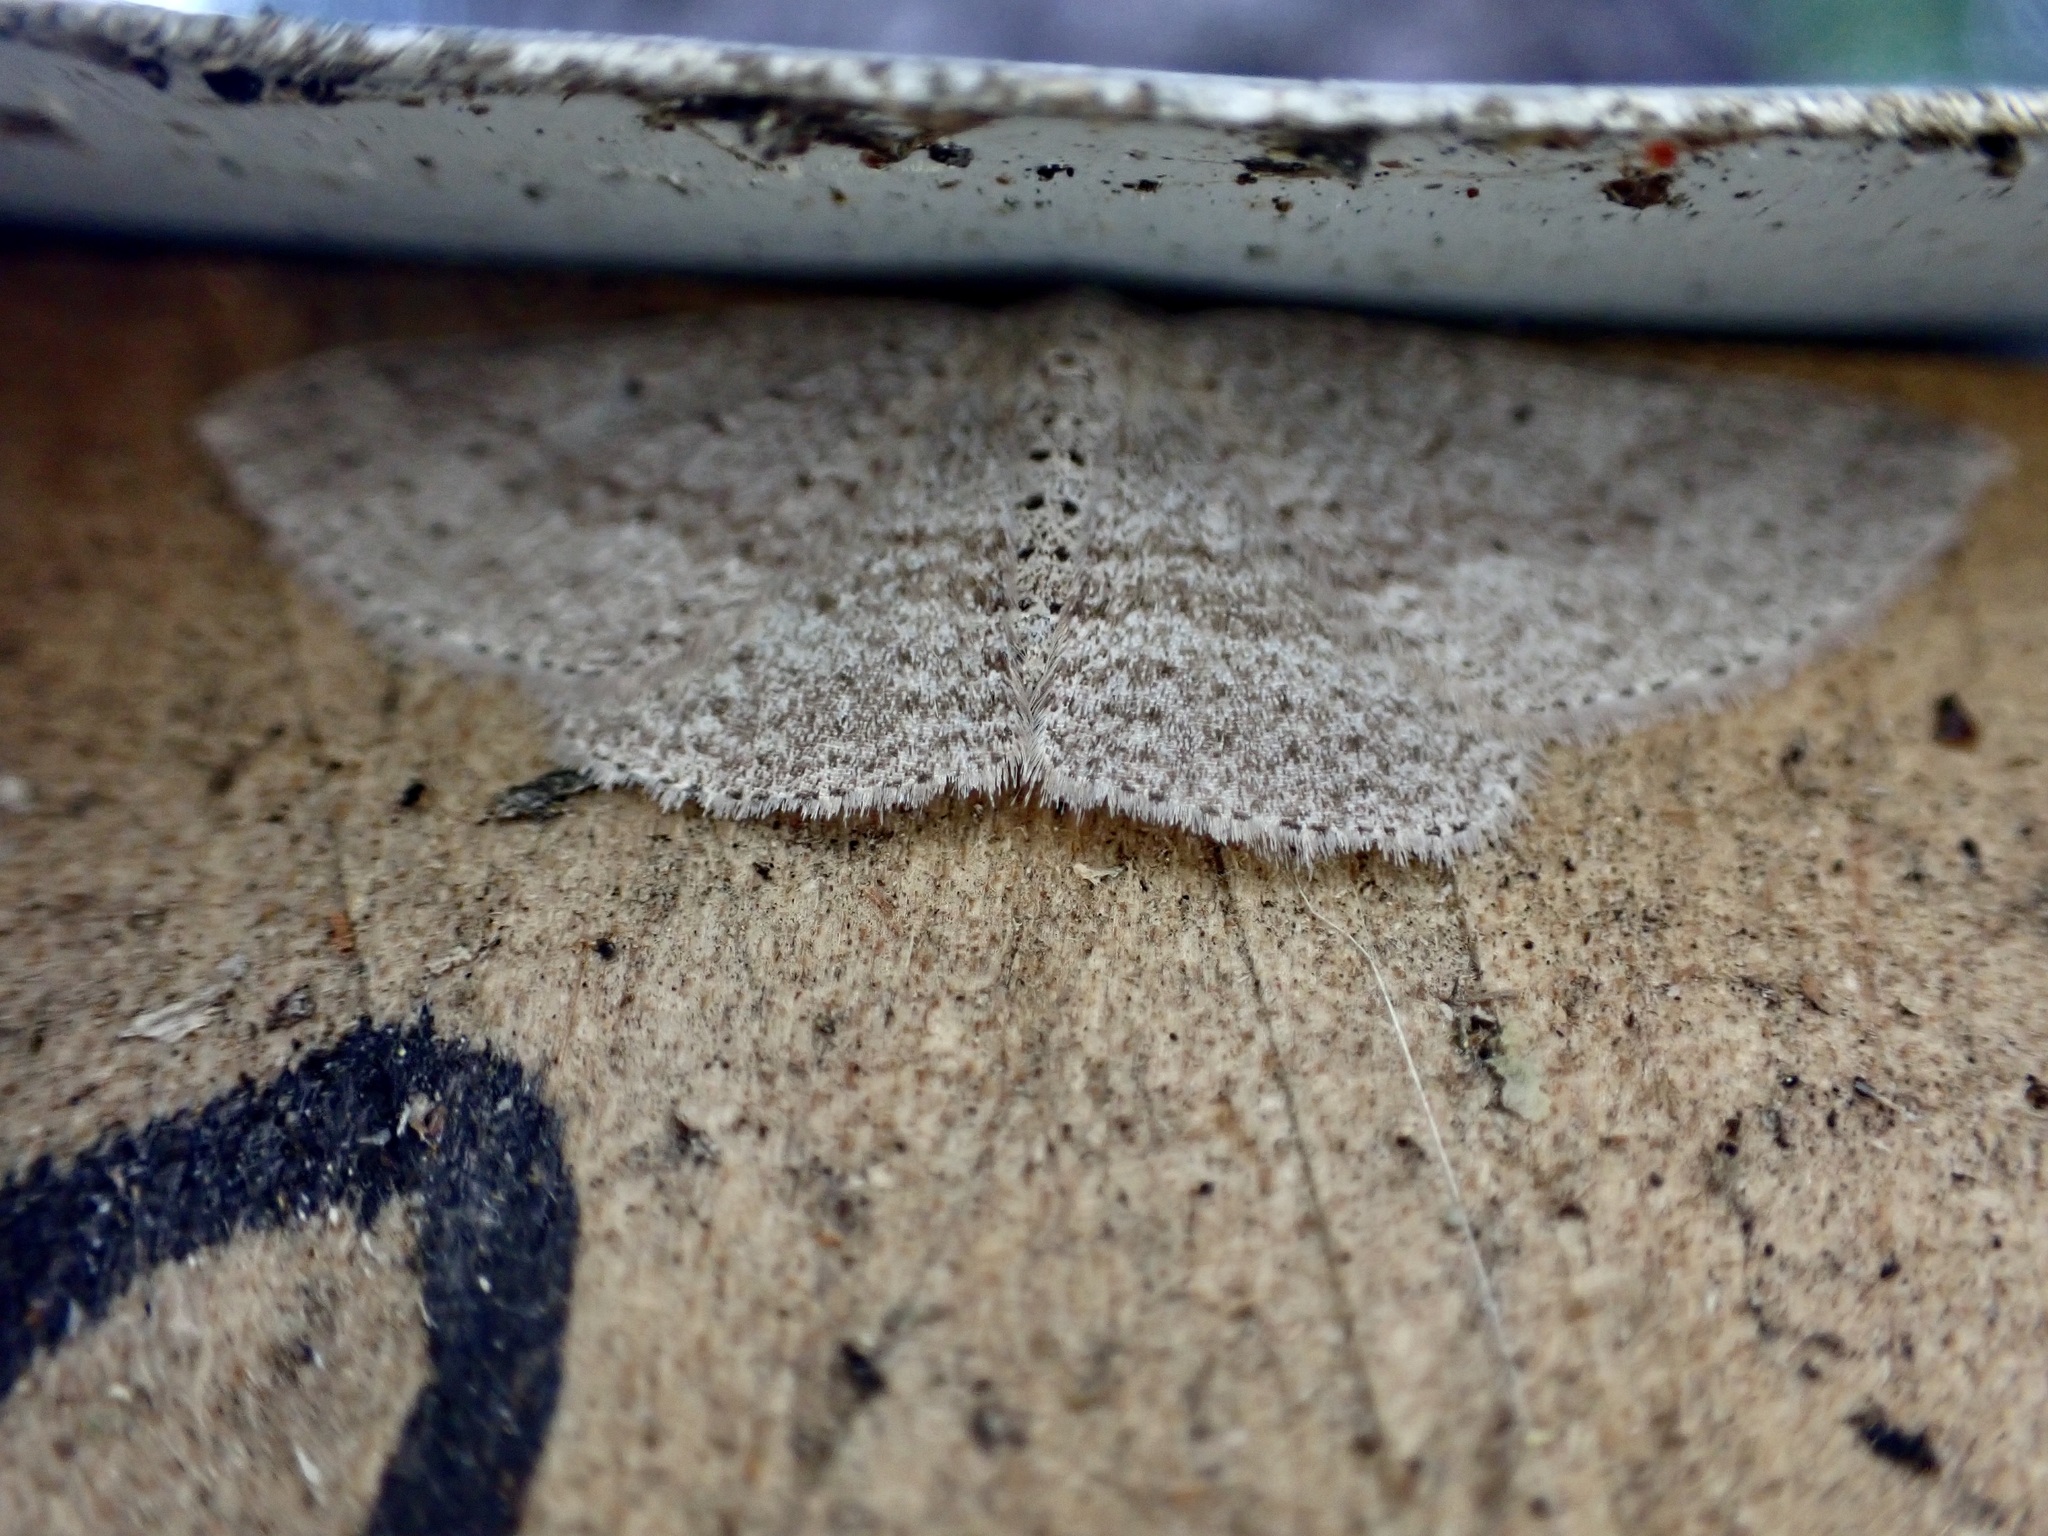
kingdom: Animalia
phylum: Arthropoda
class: Insecta
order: Lepidoptera
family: Geometridae
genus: Poecilasthena
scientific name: Poecilasthena schistaria
